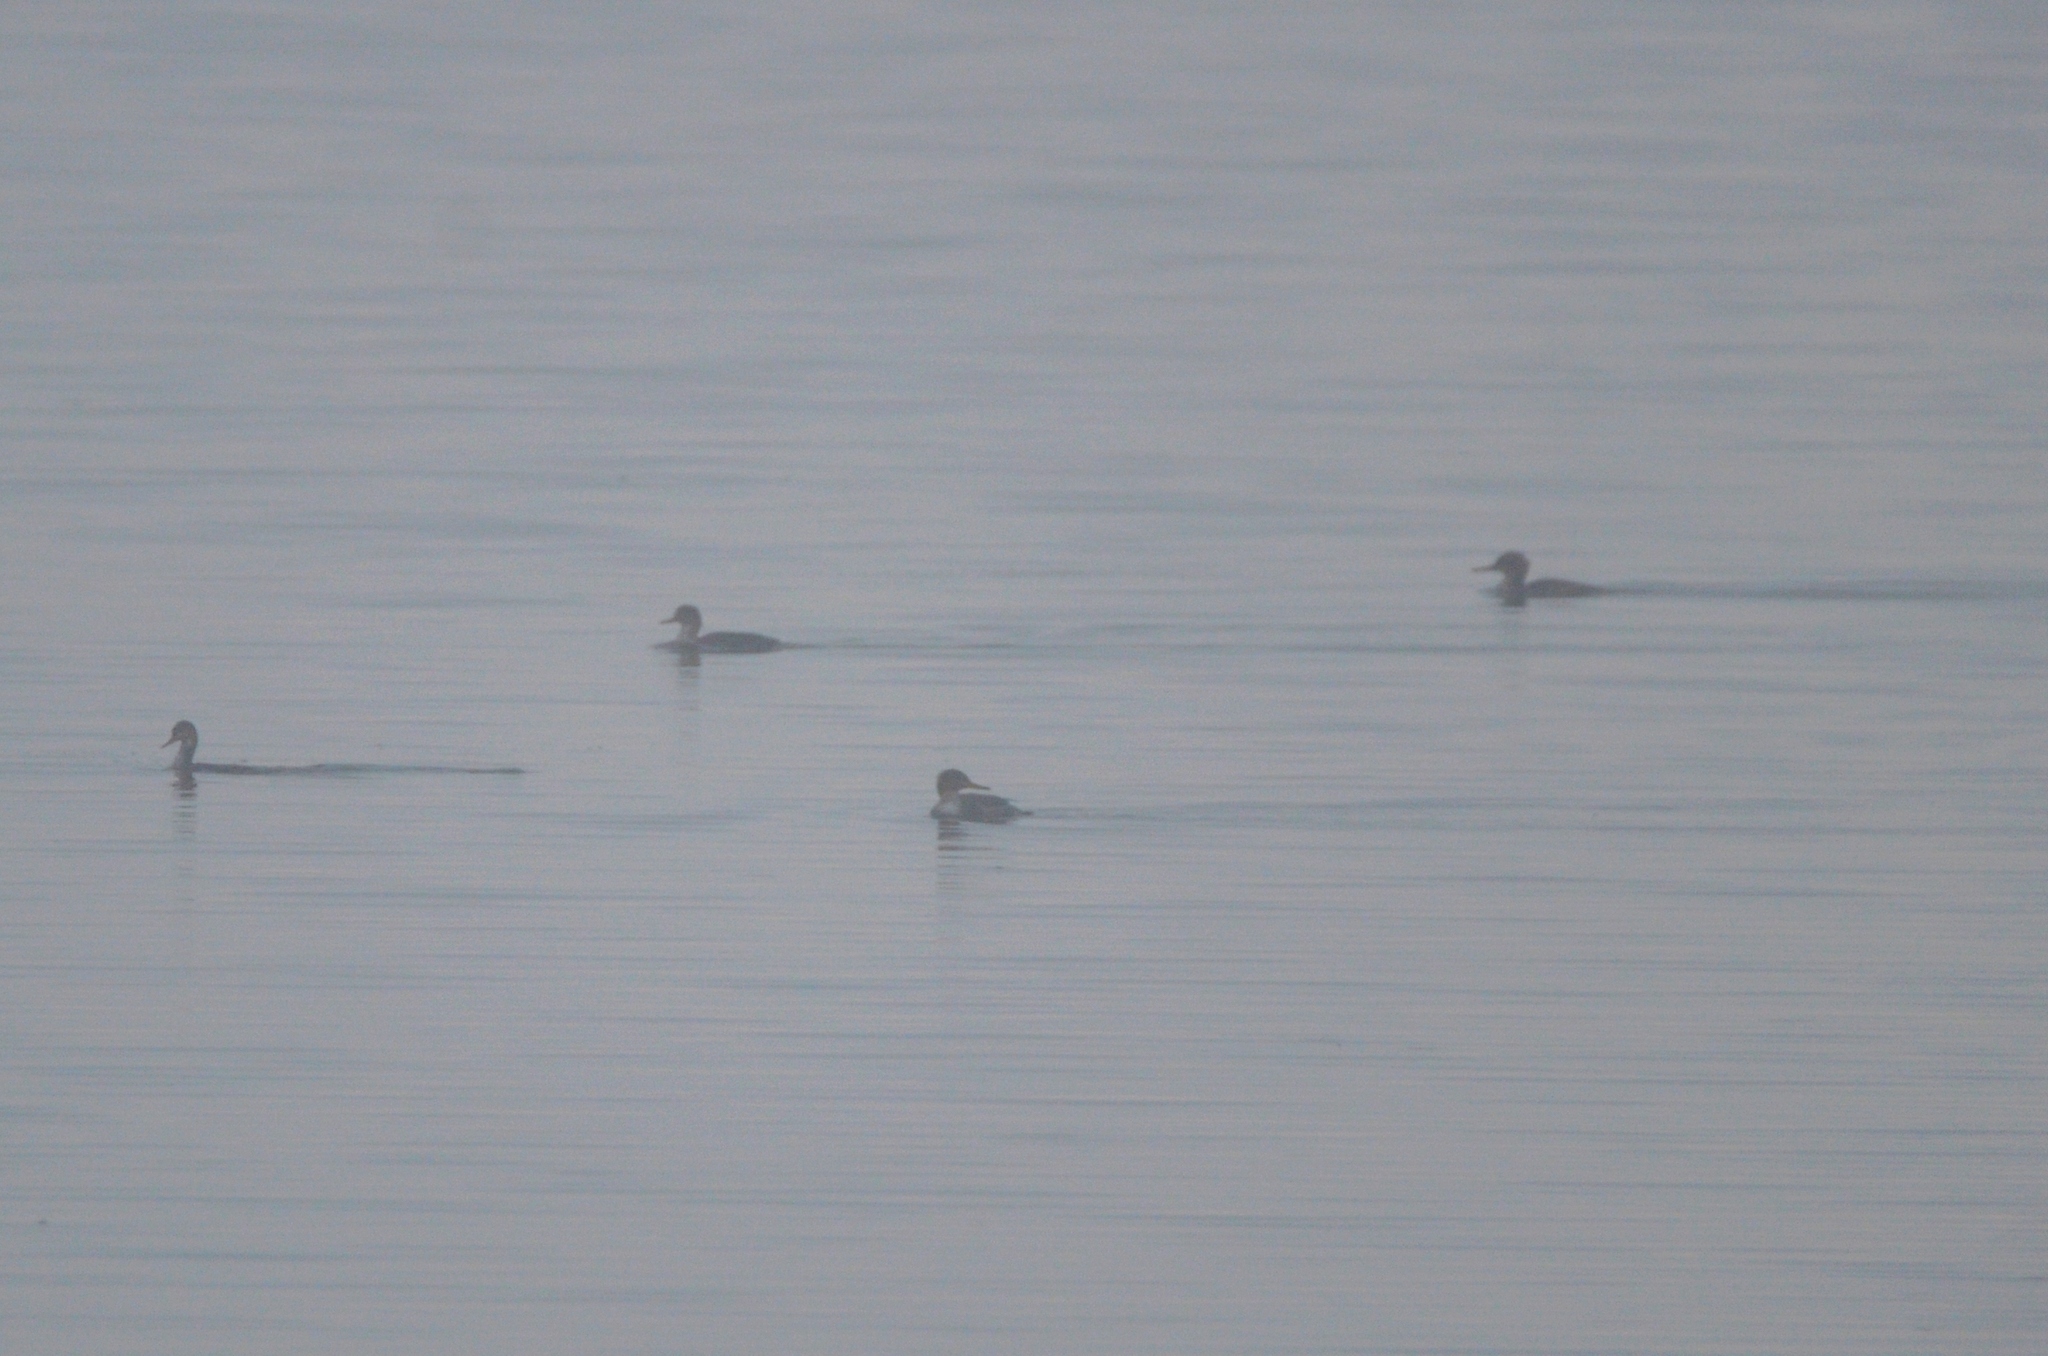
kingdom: Animalia
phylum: Chordata
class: Aves
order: Anseriformes
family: Anatidae
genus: Mergus
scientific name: Mergus serrator
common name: Red-breasted merganser
